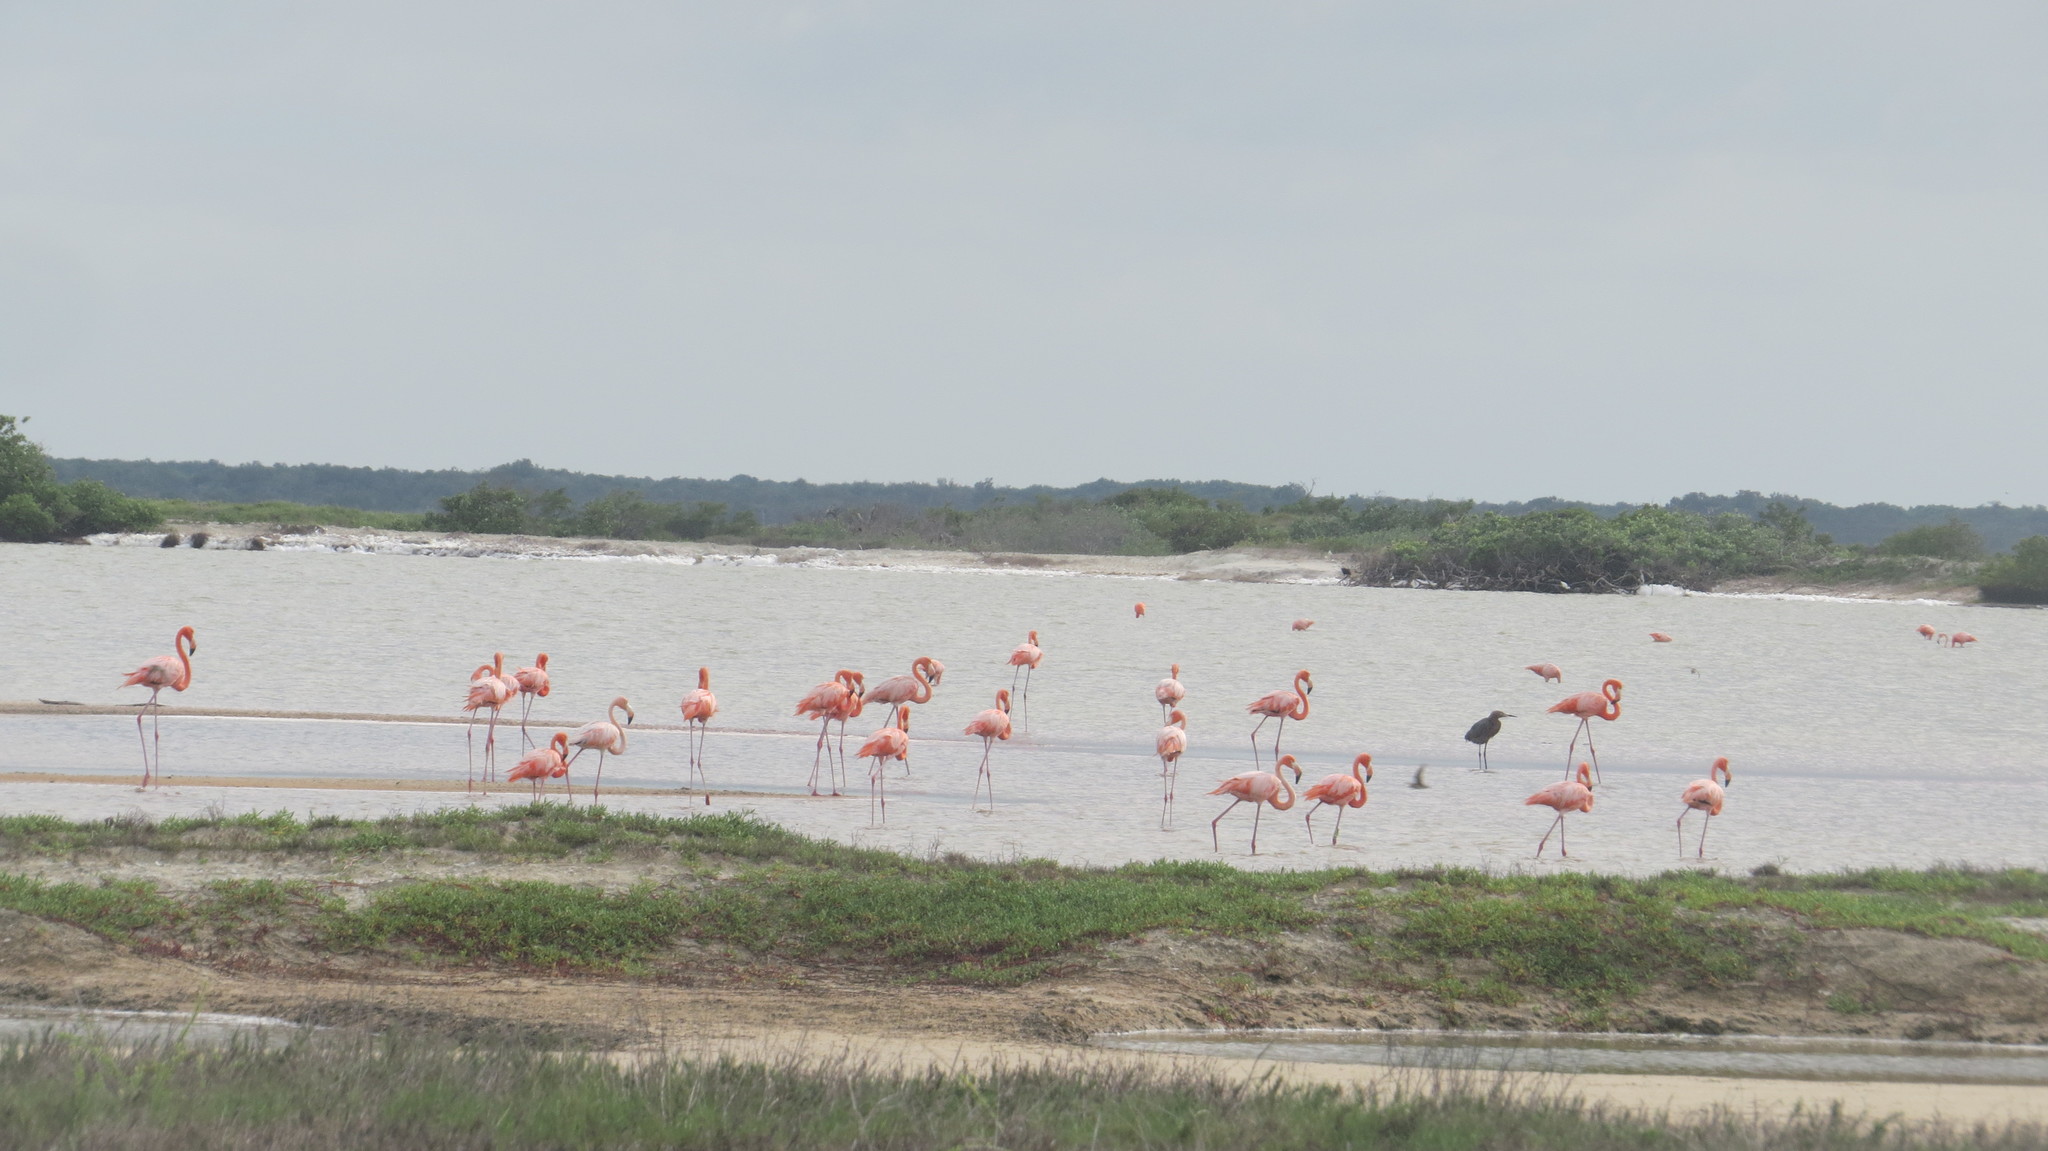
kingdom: Animalia
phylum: Chordata
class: Aves
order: Phoenicopteriformes
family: Phoenicopteridae
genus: Phoenicopterus
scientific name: Phoenicopterus ruber
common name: American flamingo
